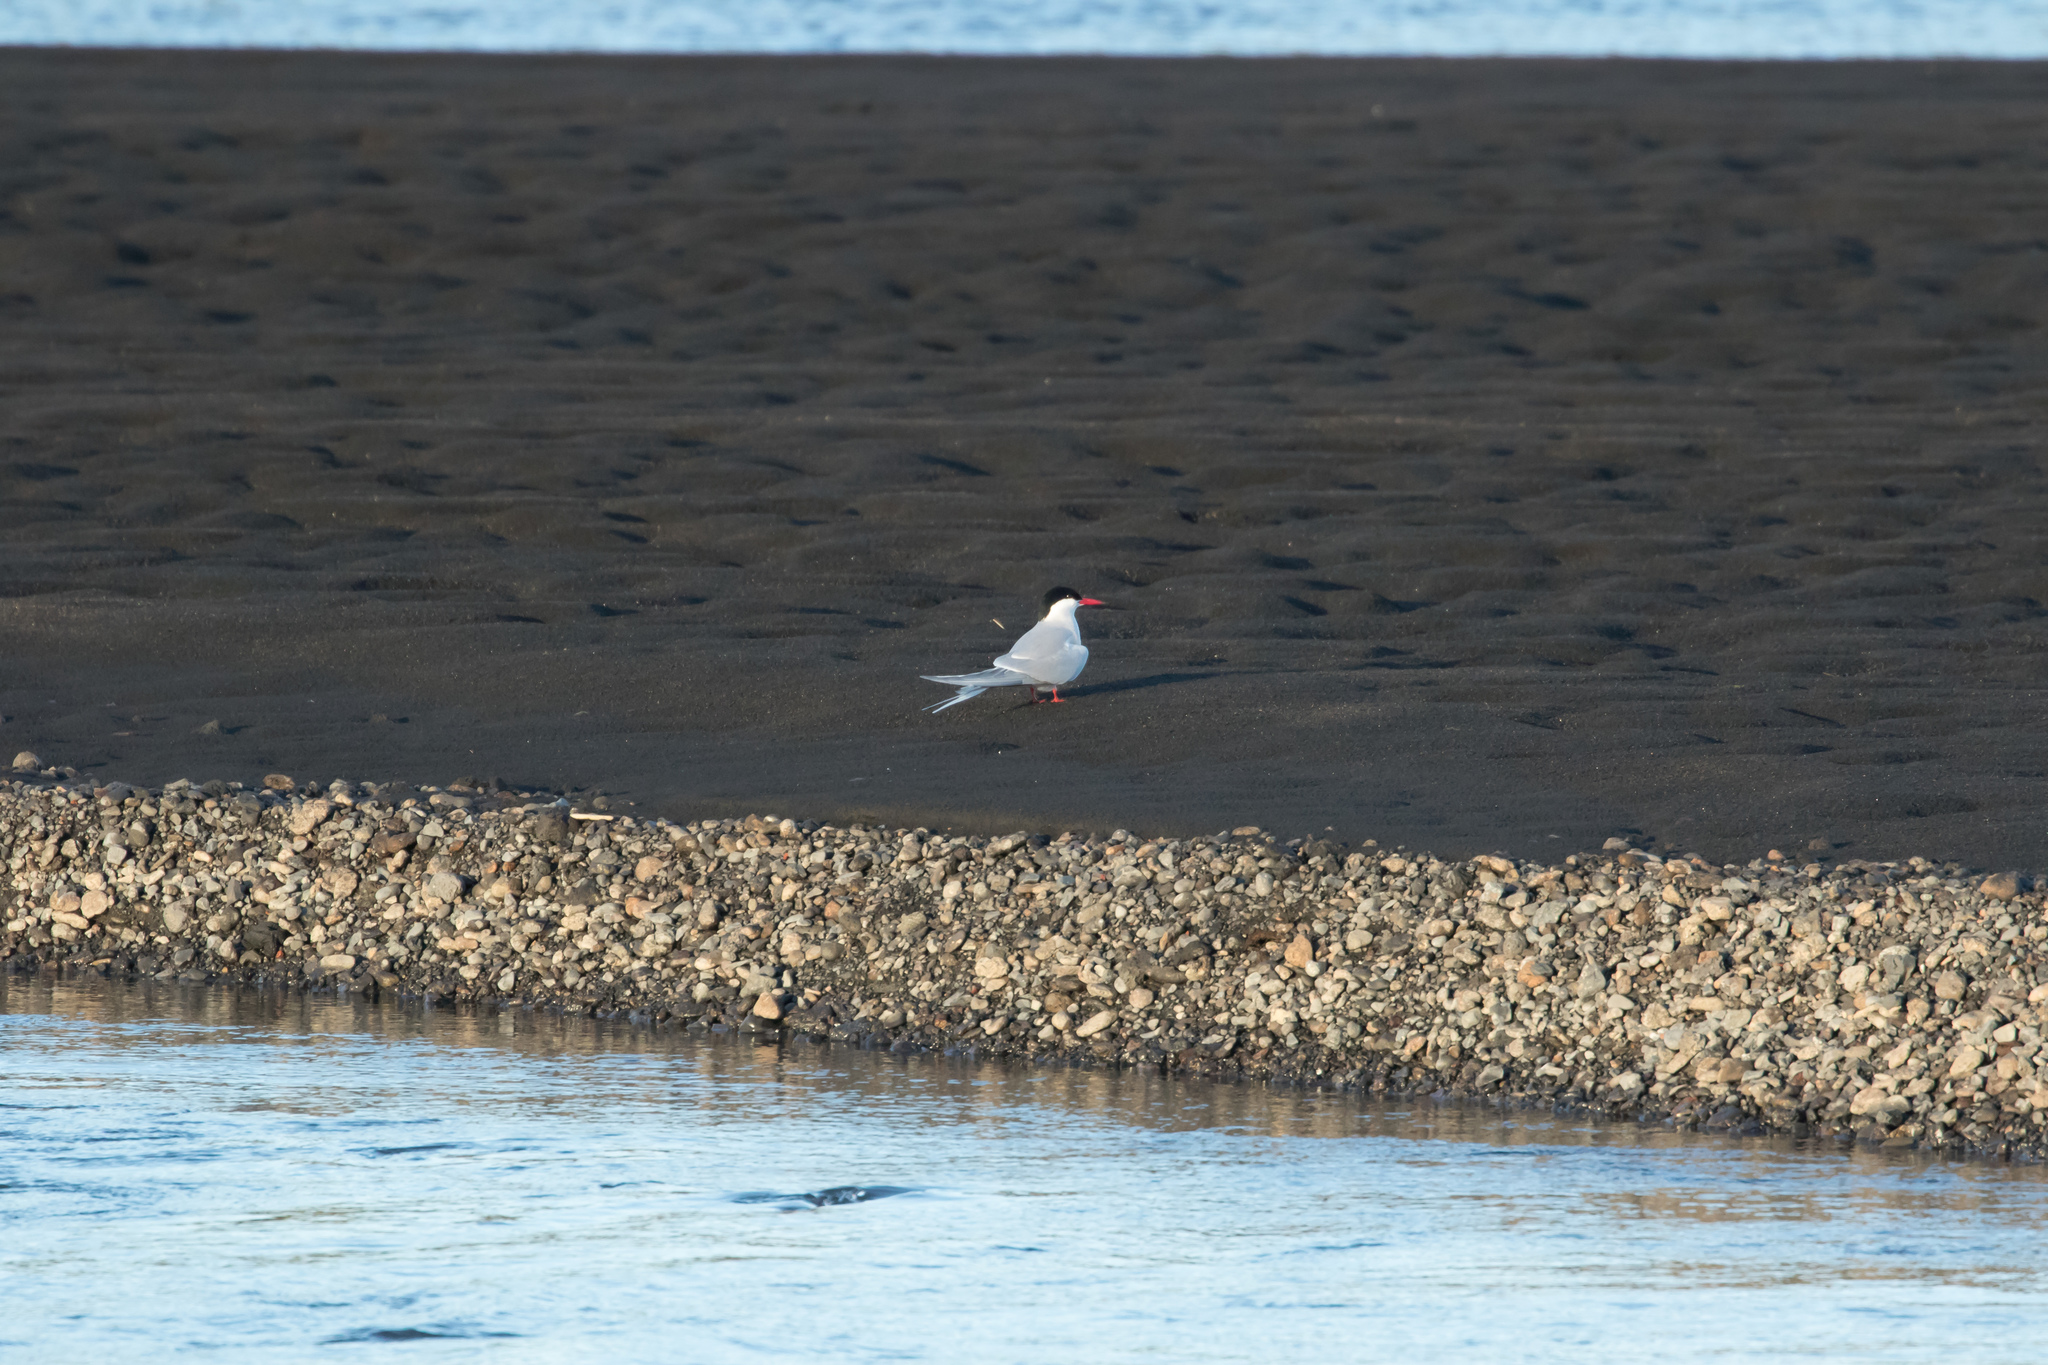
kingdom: Animalia
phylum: Chordata
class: Aves
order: Charadriiformes
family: Laridae
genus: Sterna
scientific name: Sterna paradisaea
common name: Arctic tern
